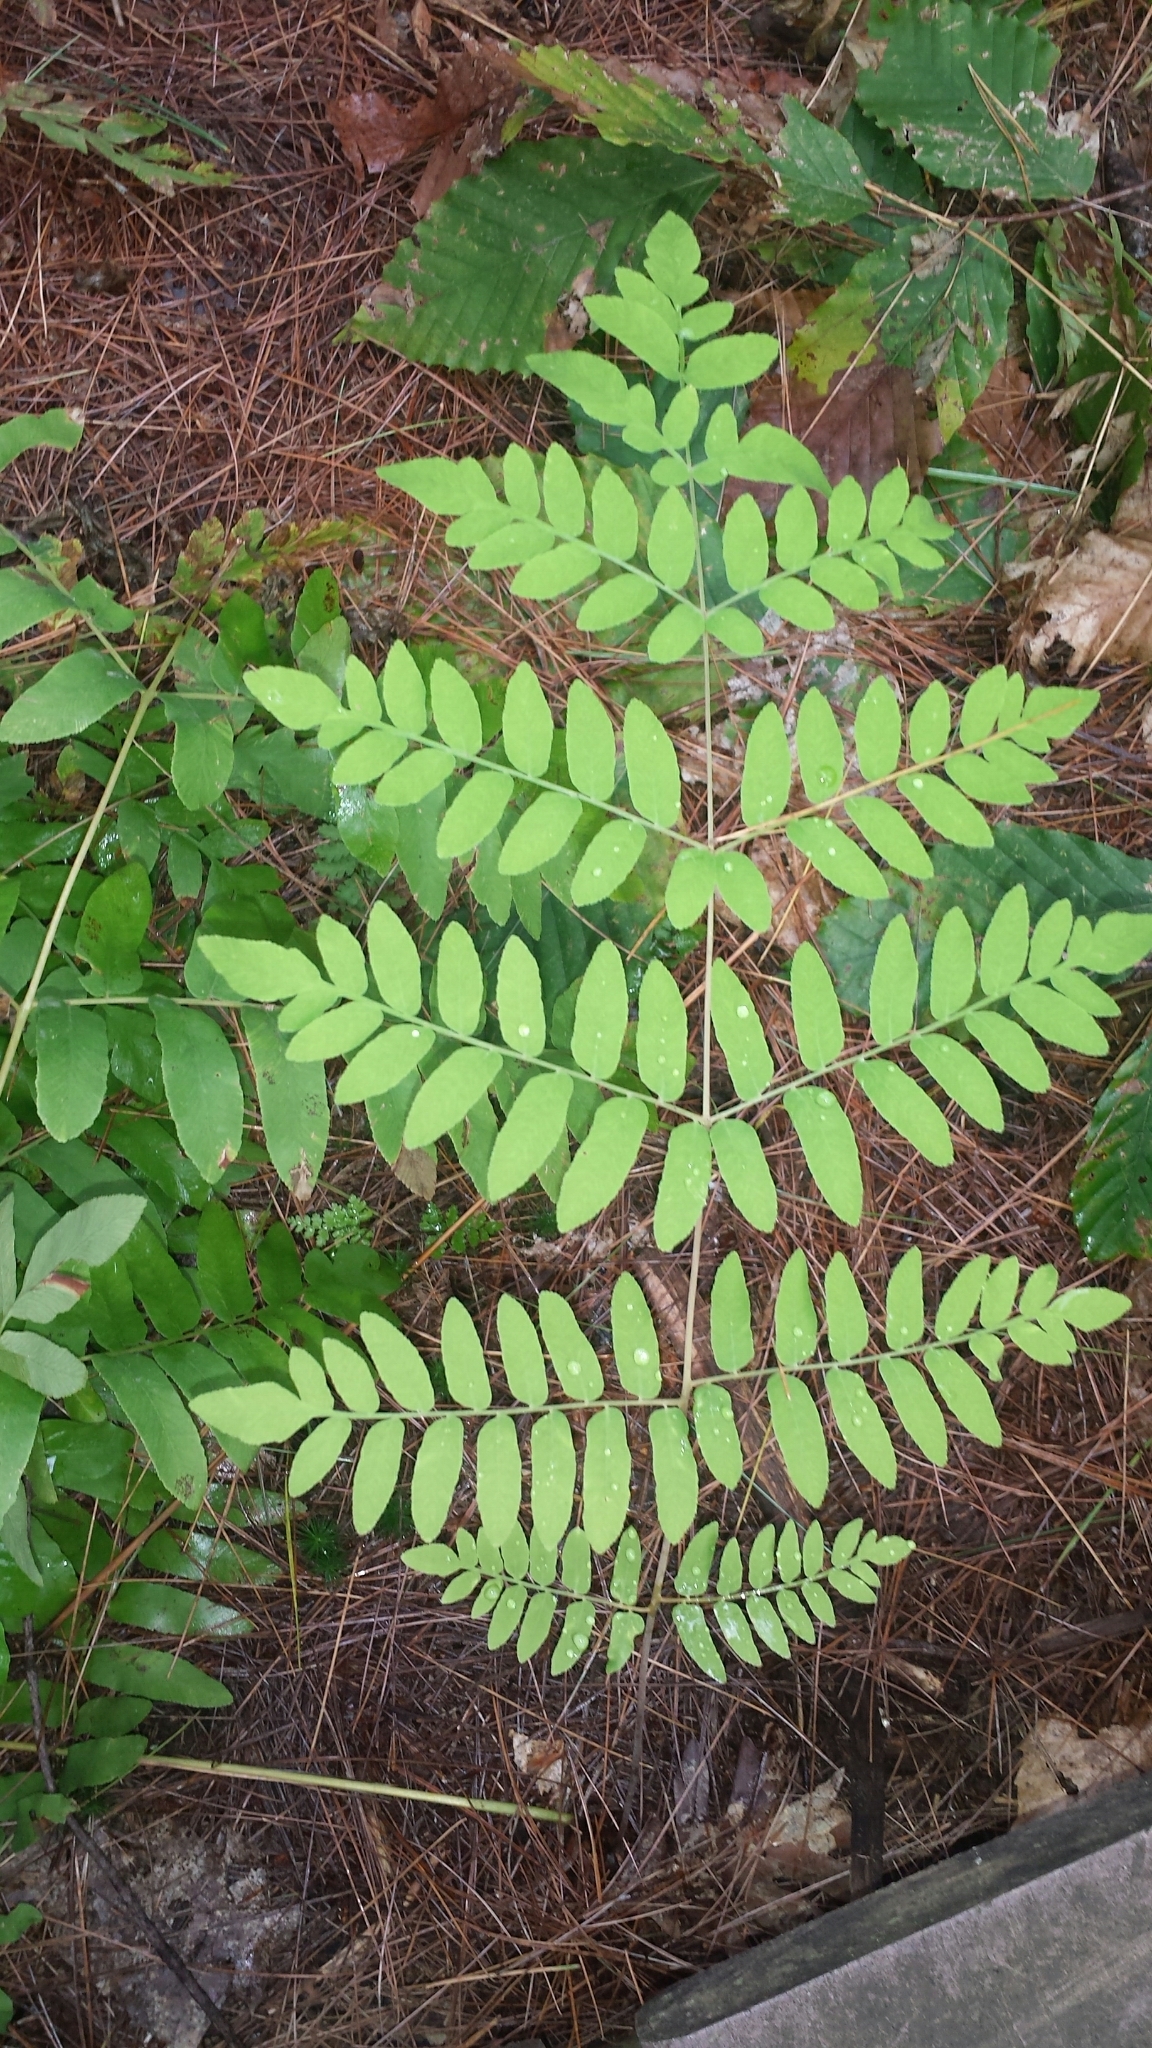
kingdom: Plantae
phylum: Tracheophyta
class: Polypodiopsida
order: Osmundales
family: Osmundaceae
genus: Osmunda
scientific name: Osmunda spectabilis
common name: American royal fern
